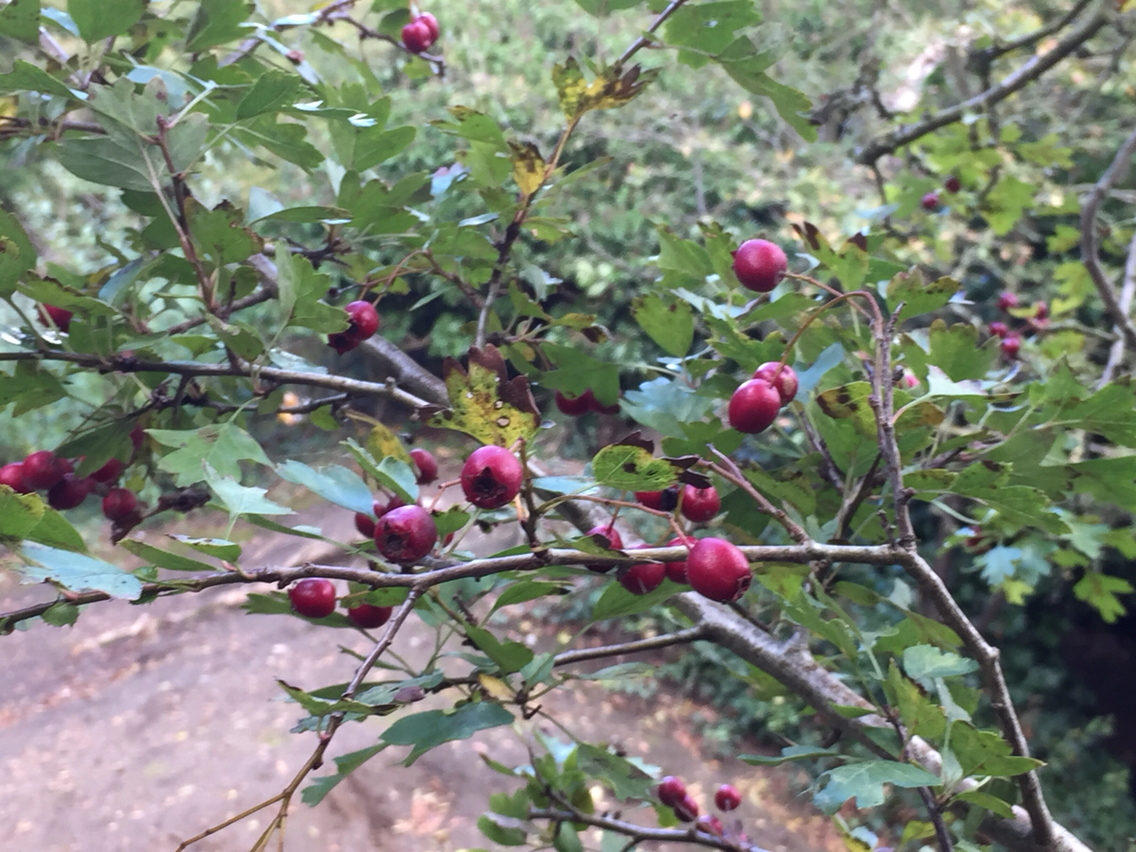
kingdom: Plantae
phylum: Tracheophyta
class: Magnoliopsida
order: Rosales
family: Rosaceae
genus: Crataegus
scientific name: Crataegus monogyna
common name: Hawthorn
